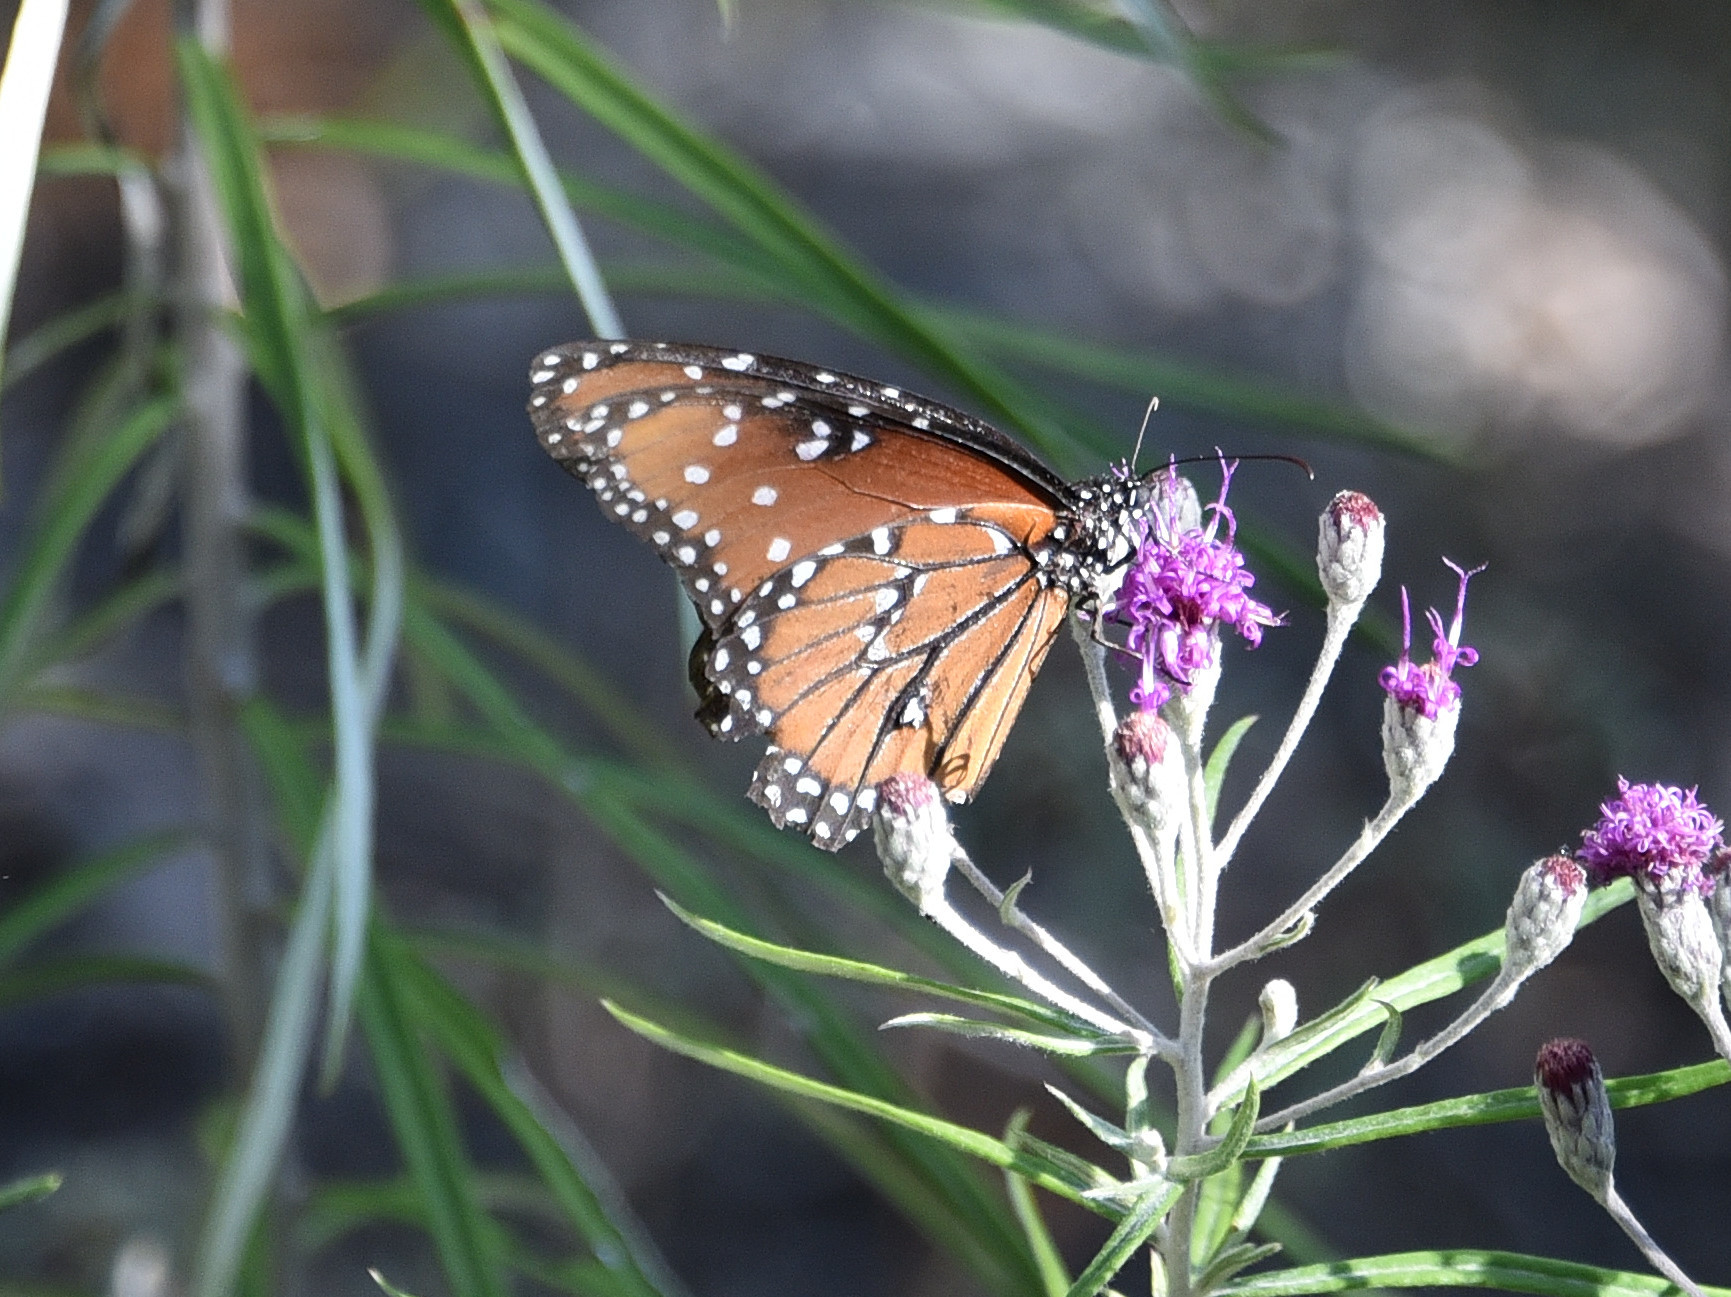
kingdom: Animalia
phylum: Arthropoda
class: Insecta
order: Lepidoptera
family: Nymphalidae
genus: Danaus
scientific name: Danaus gilippus
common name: Queen
